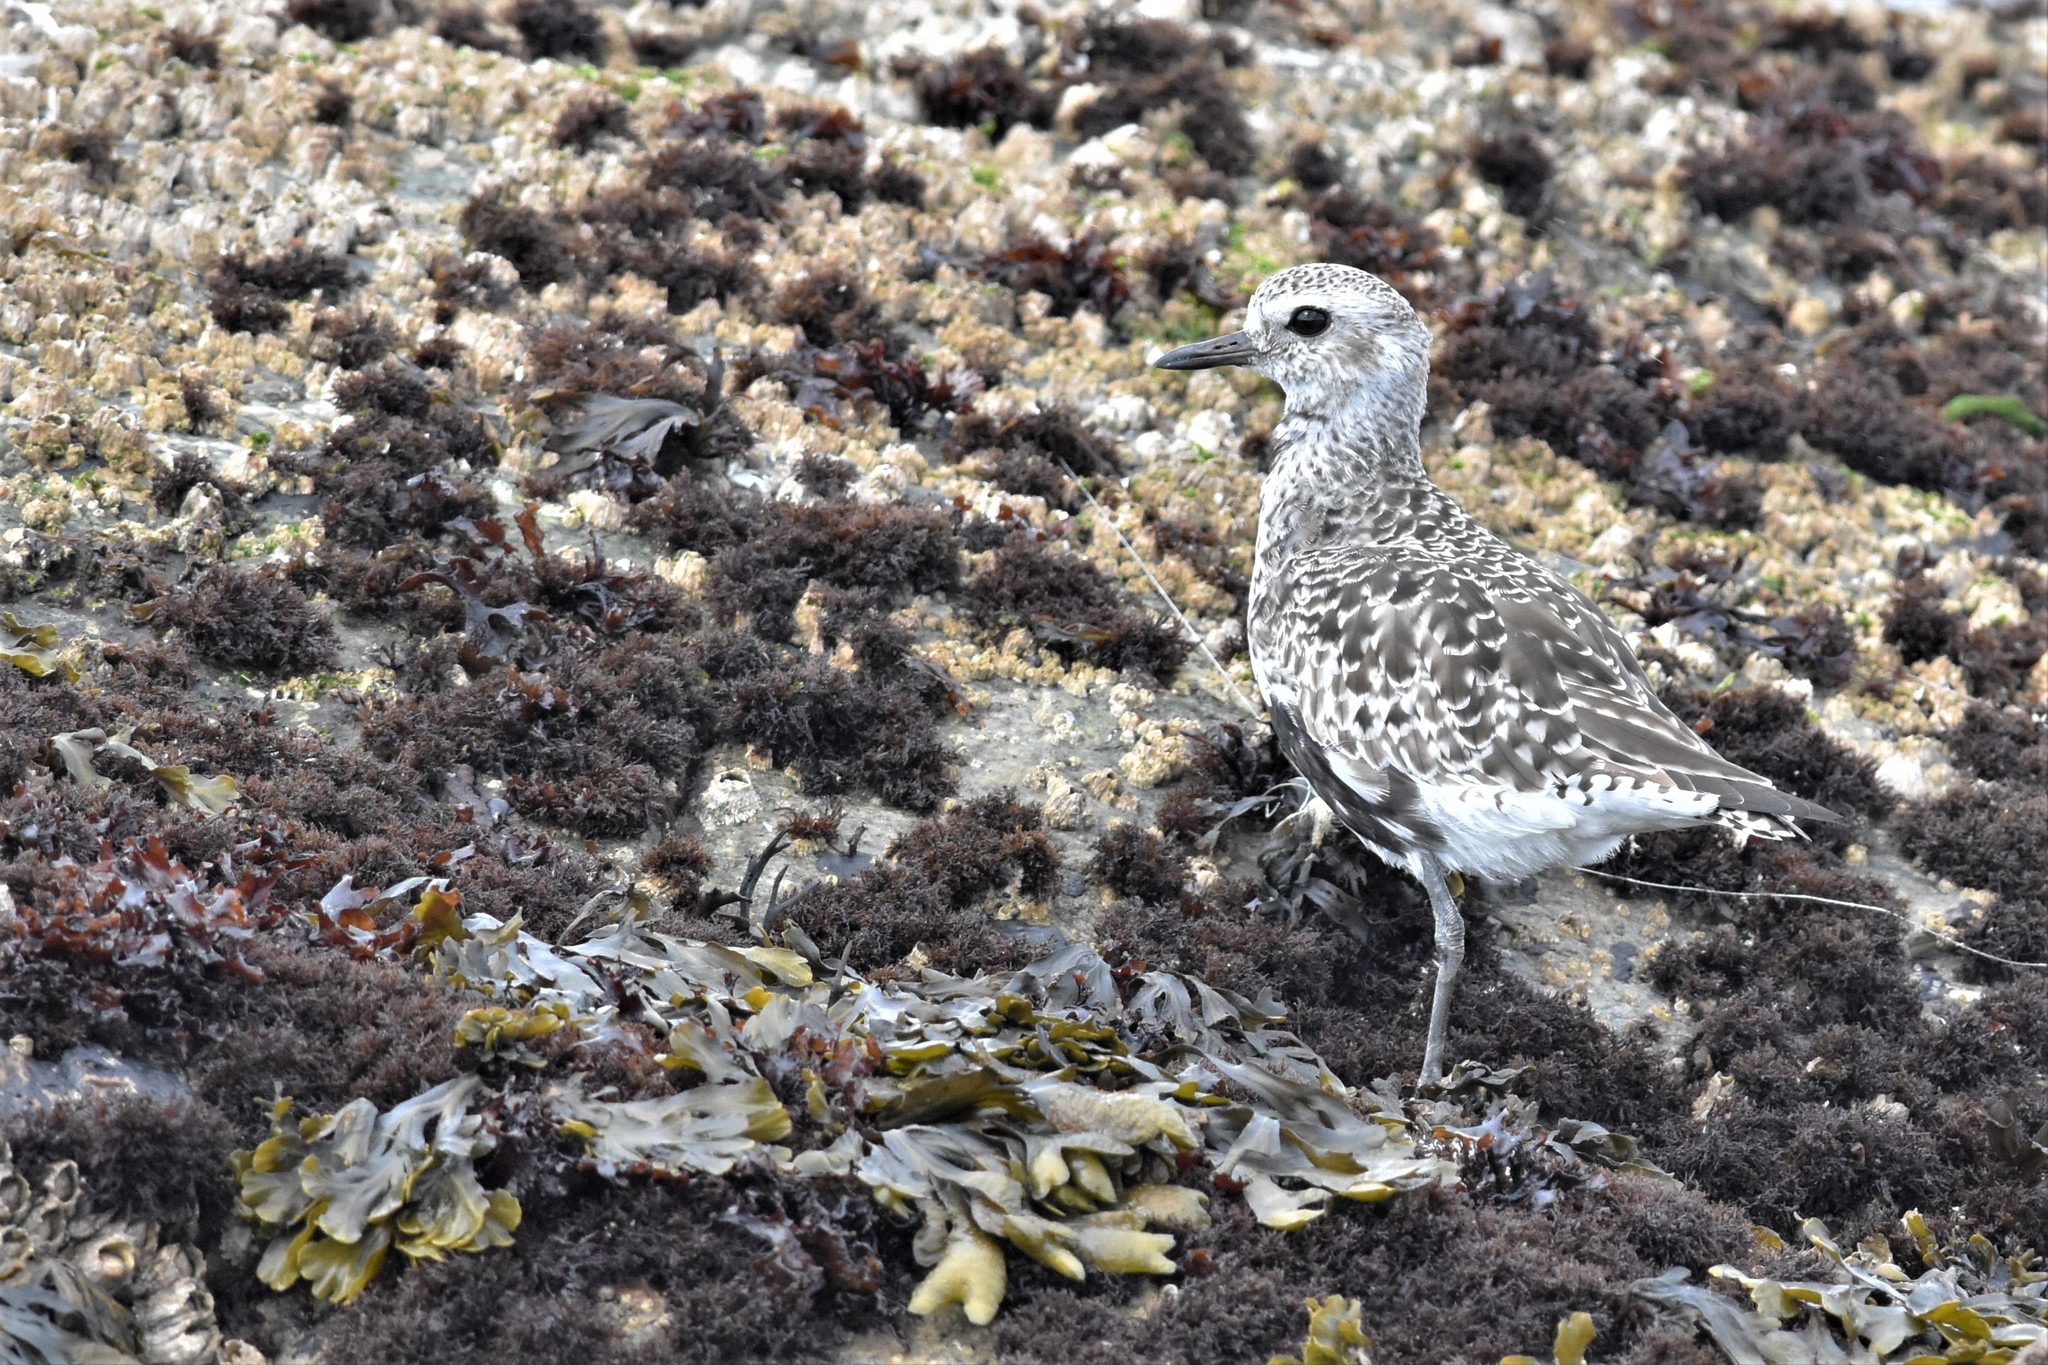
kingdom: Animalia
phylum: Chordata
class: Aves
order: Charadriiformes
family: Charadriidae
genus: Pluvialis
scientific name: Pluvialis squatarola
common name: Grey plover
